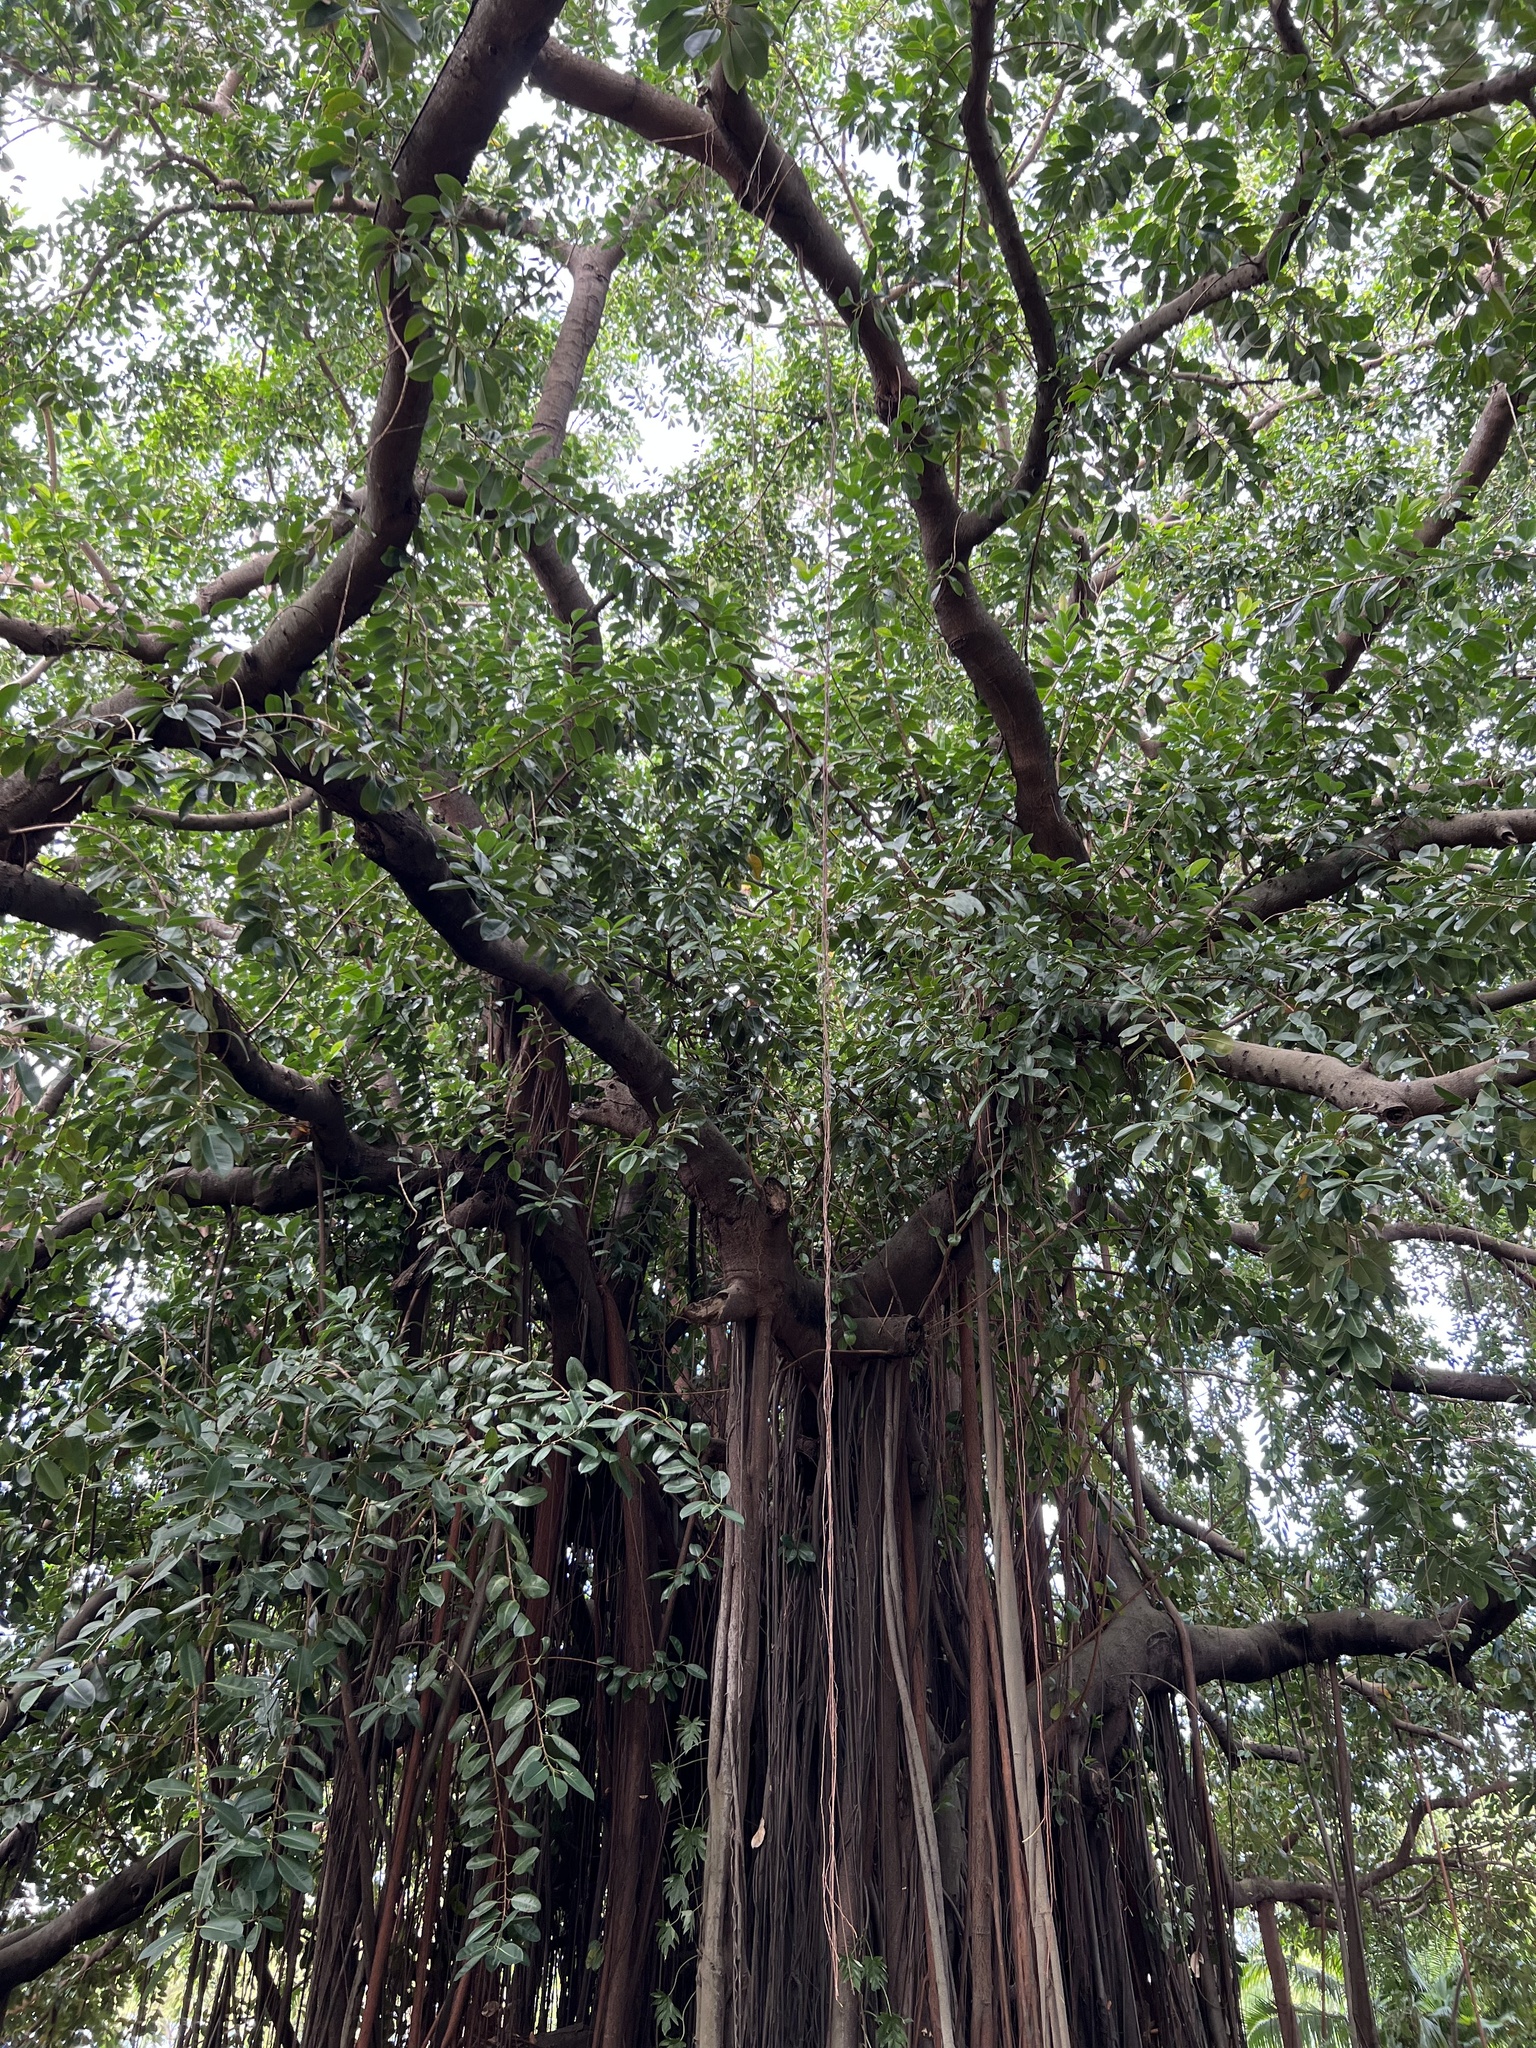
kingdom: Plantae
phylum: Tracheophyta
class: Magnoliopsida
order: Rosales
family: Moraceae
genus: Ficus
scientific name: Ficus elastica
